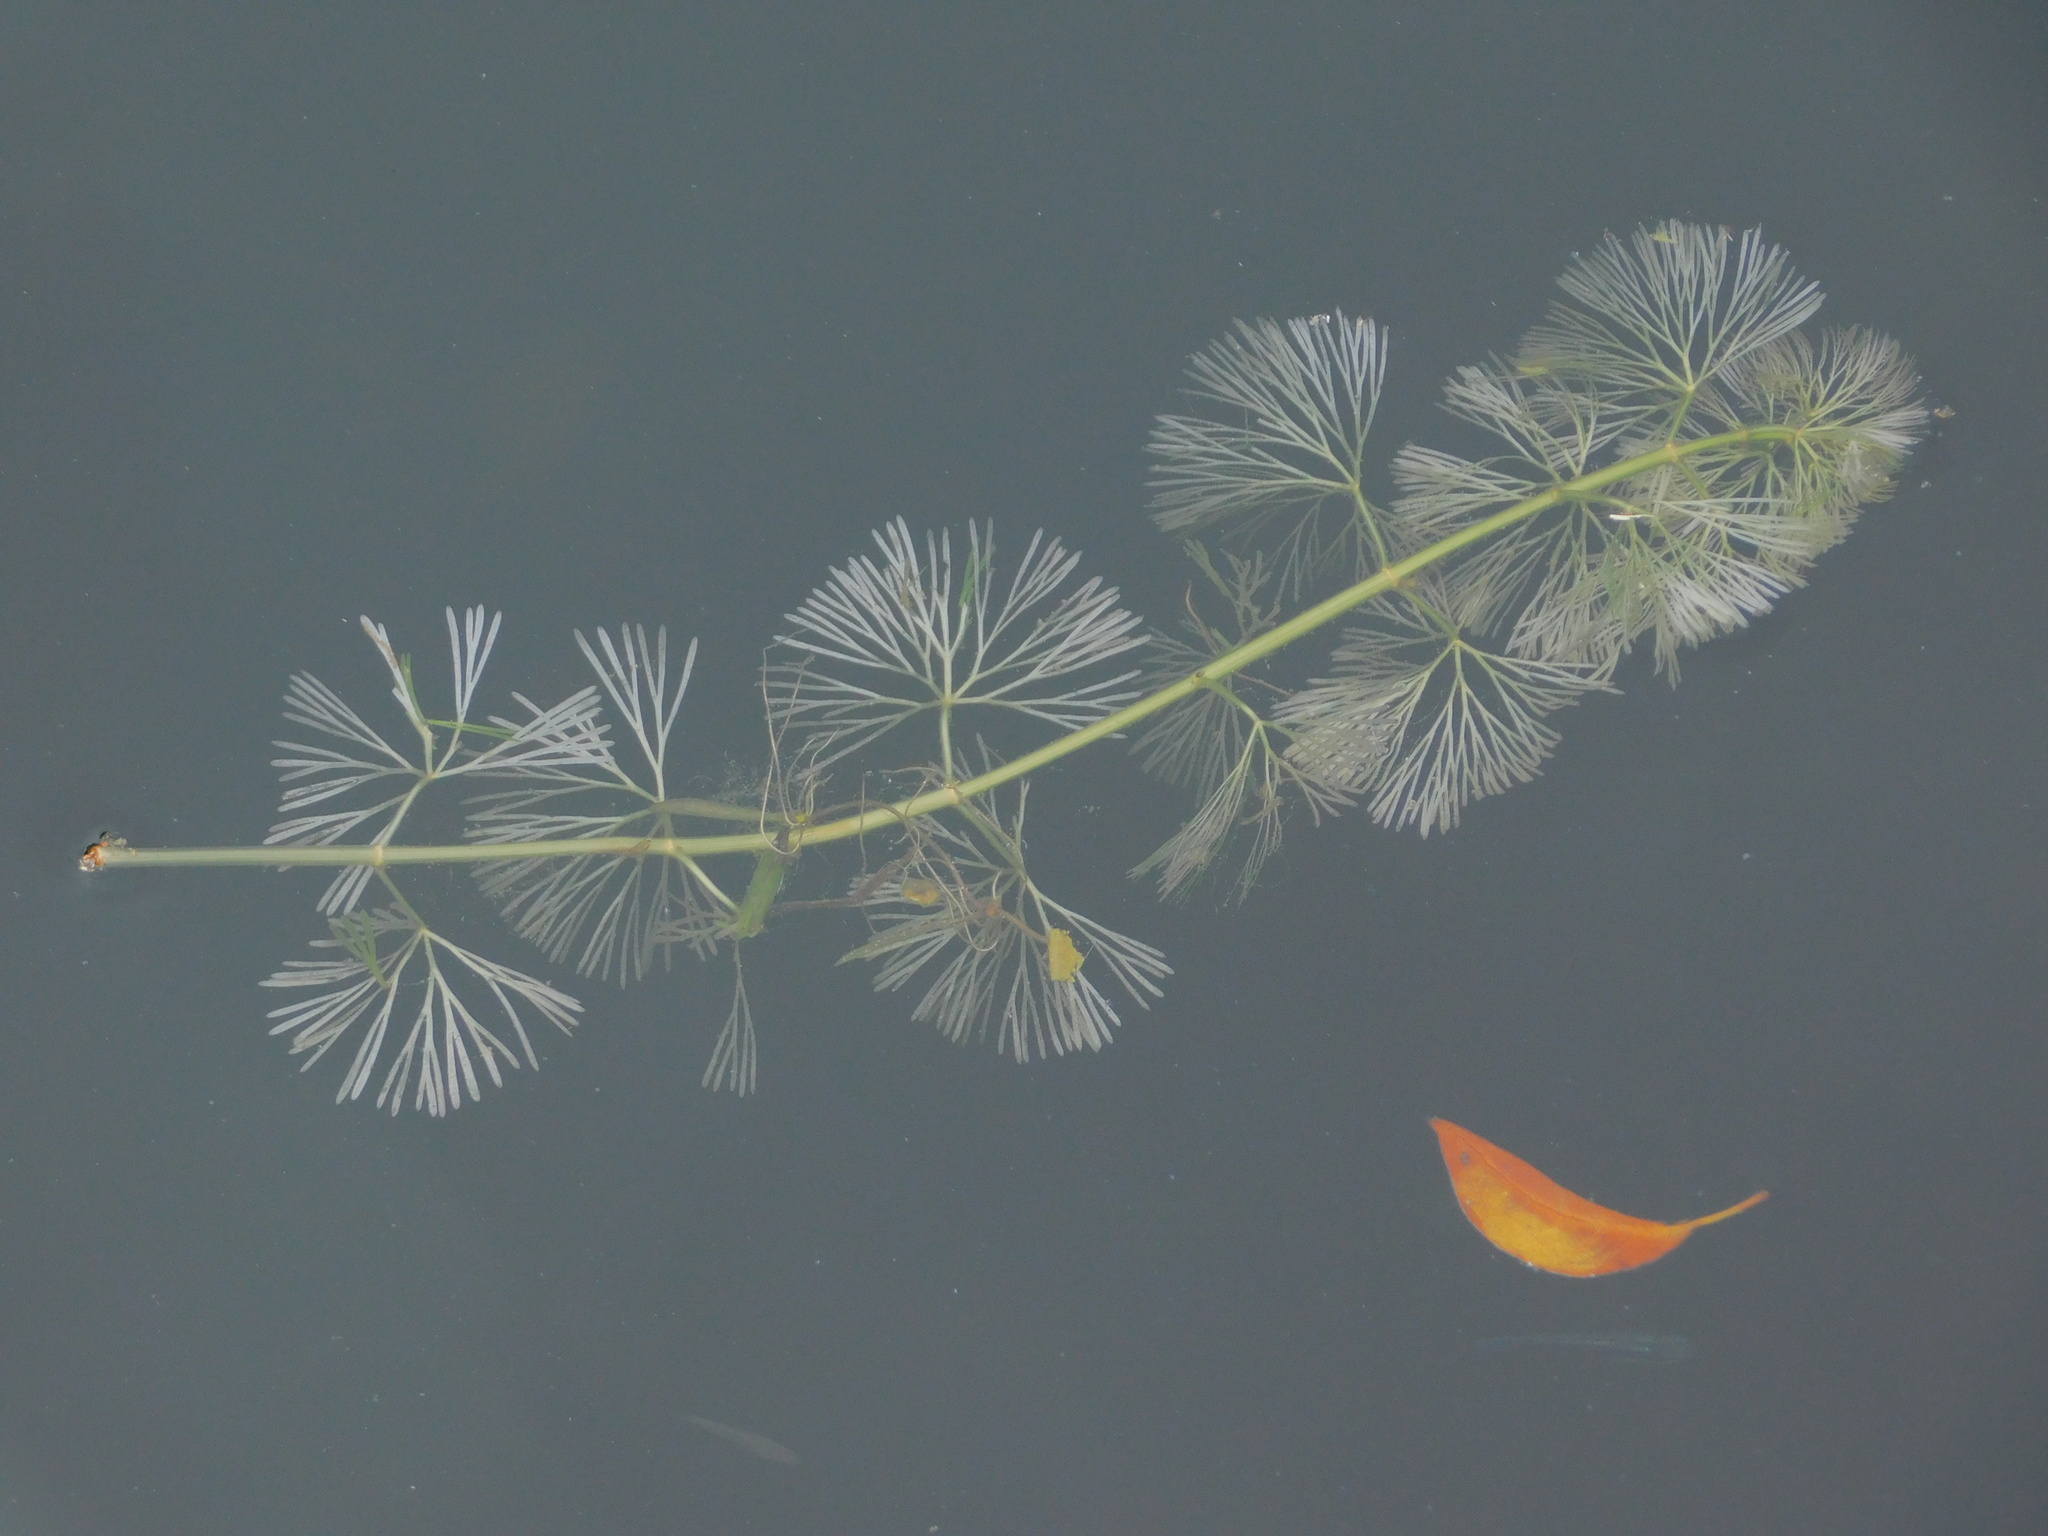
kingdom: Plantae
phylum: Tracheophyta
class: Magnoliopsida
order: Nymphaeales
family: Cabombaceae
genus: Cabomba
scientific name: Cabomba caroliniana
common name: Fanwort
